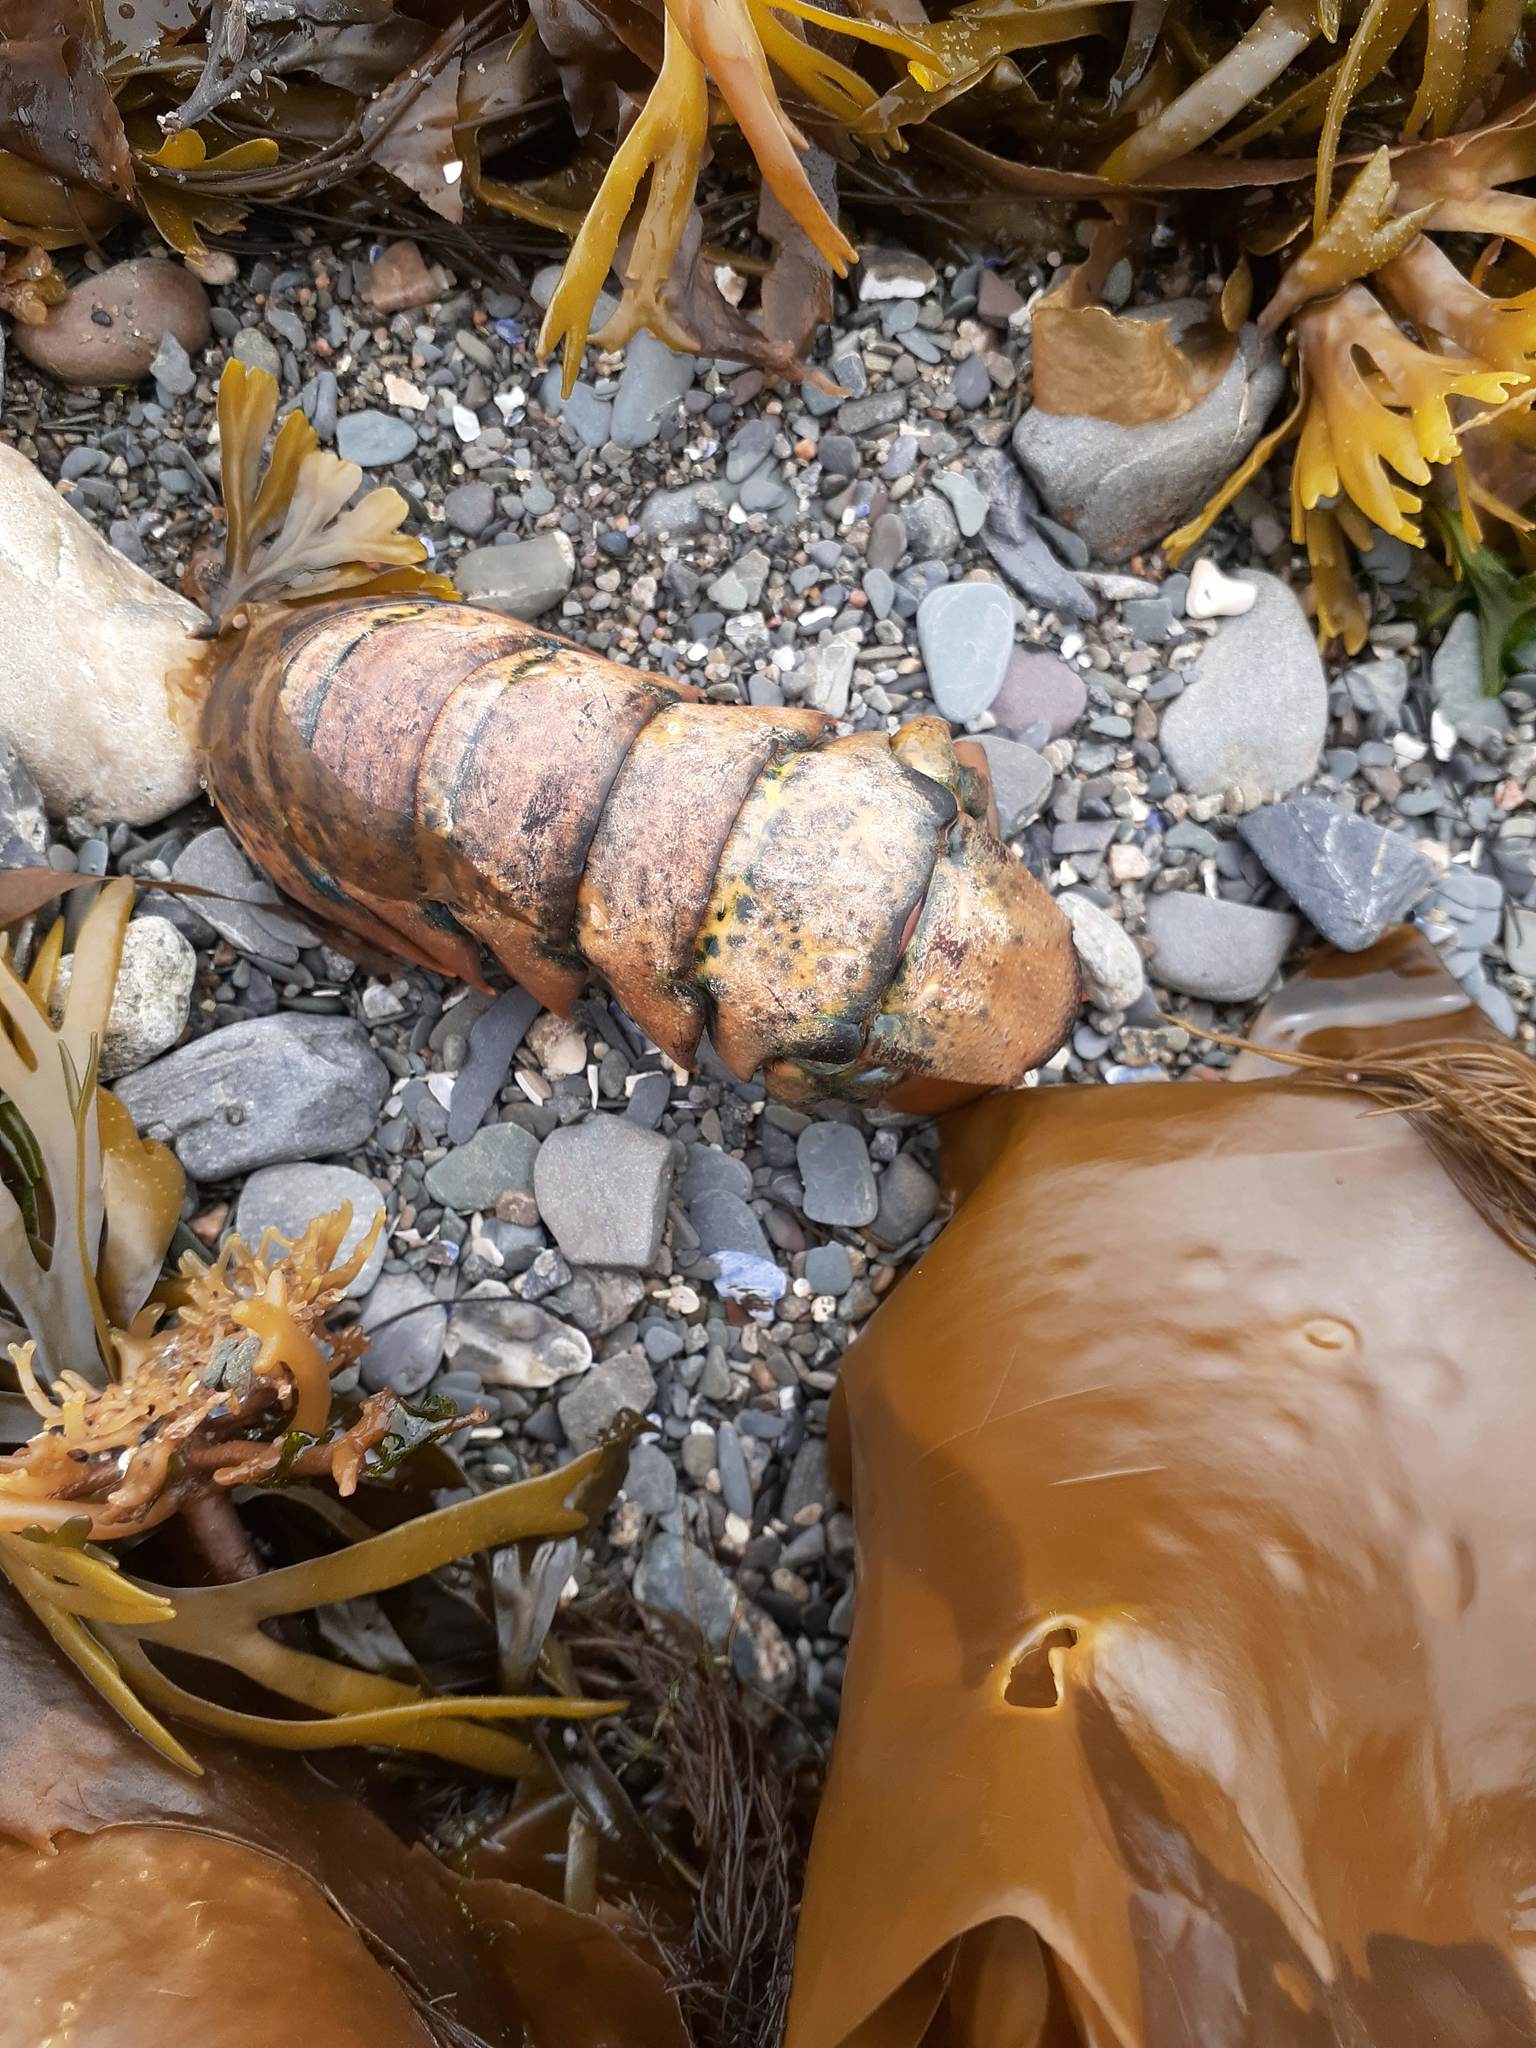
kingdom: Animalia
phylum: Arthropoda
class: Malacostraca
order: Decapoda
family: Nephropidae
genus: Homarus
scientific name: Homarus americanus
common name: American lobster
